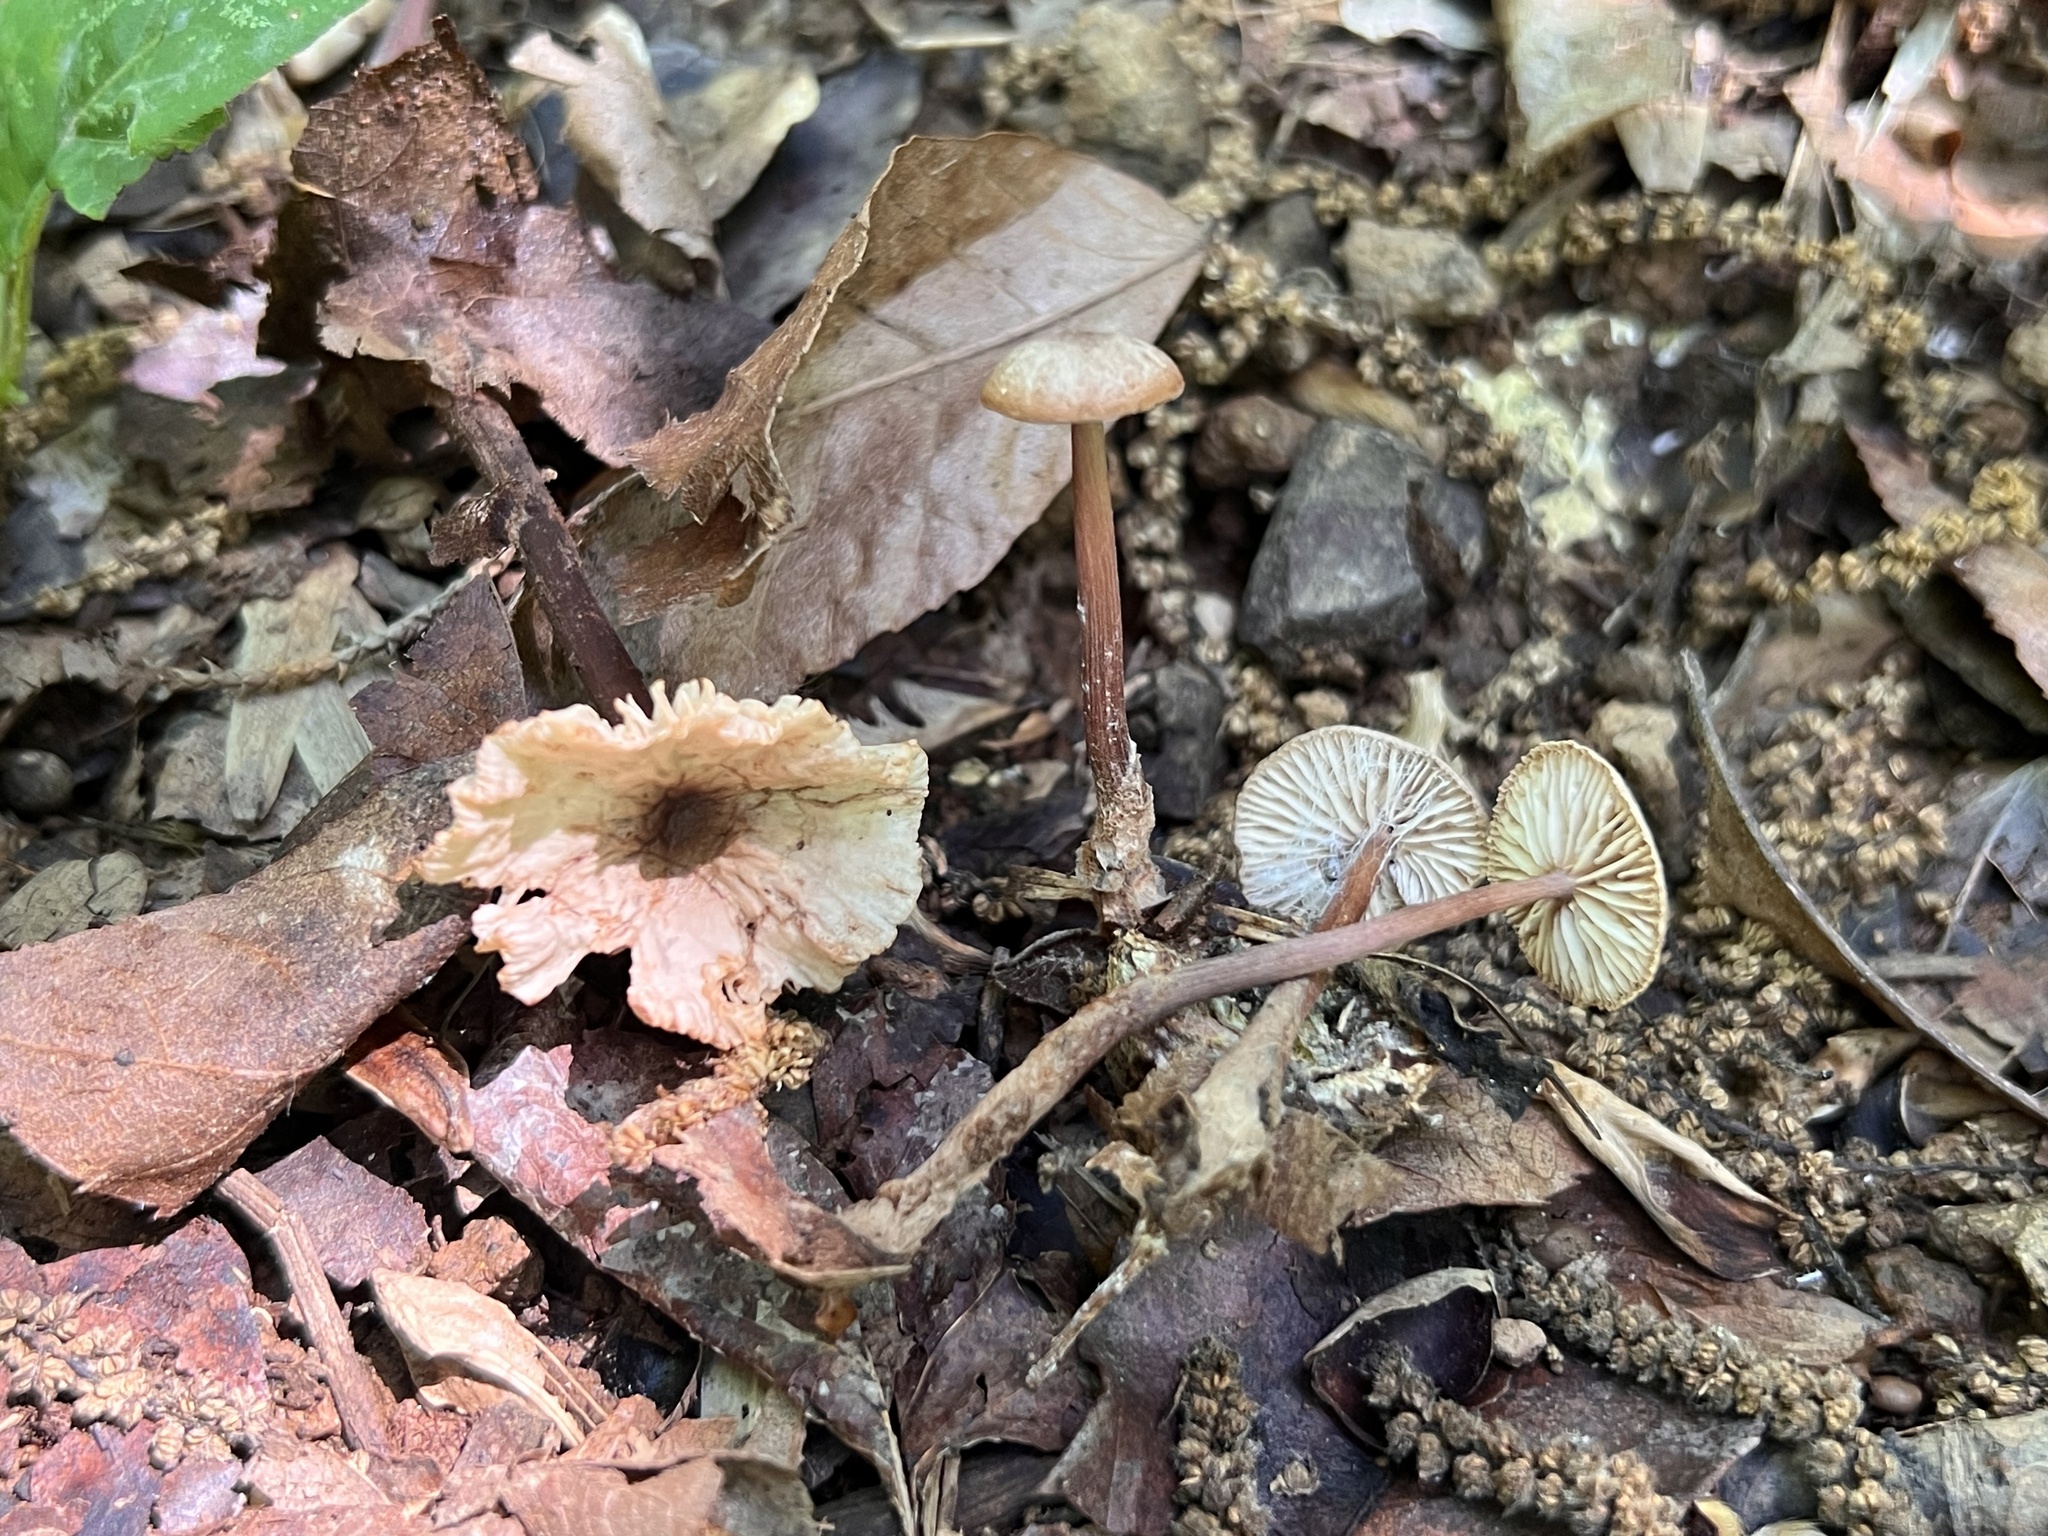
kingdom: Fungi
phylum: Basidiomycota
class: Agaricomycetes
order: Agaricales
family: Omphalotaceae
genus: Gymnopus
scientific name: Gymnopus semihirtipes
